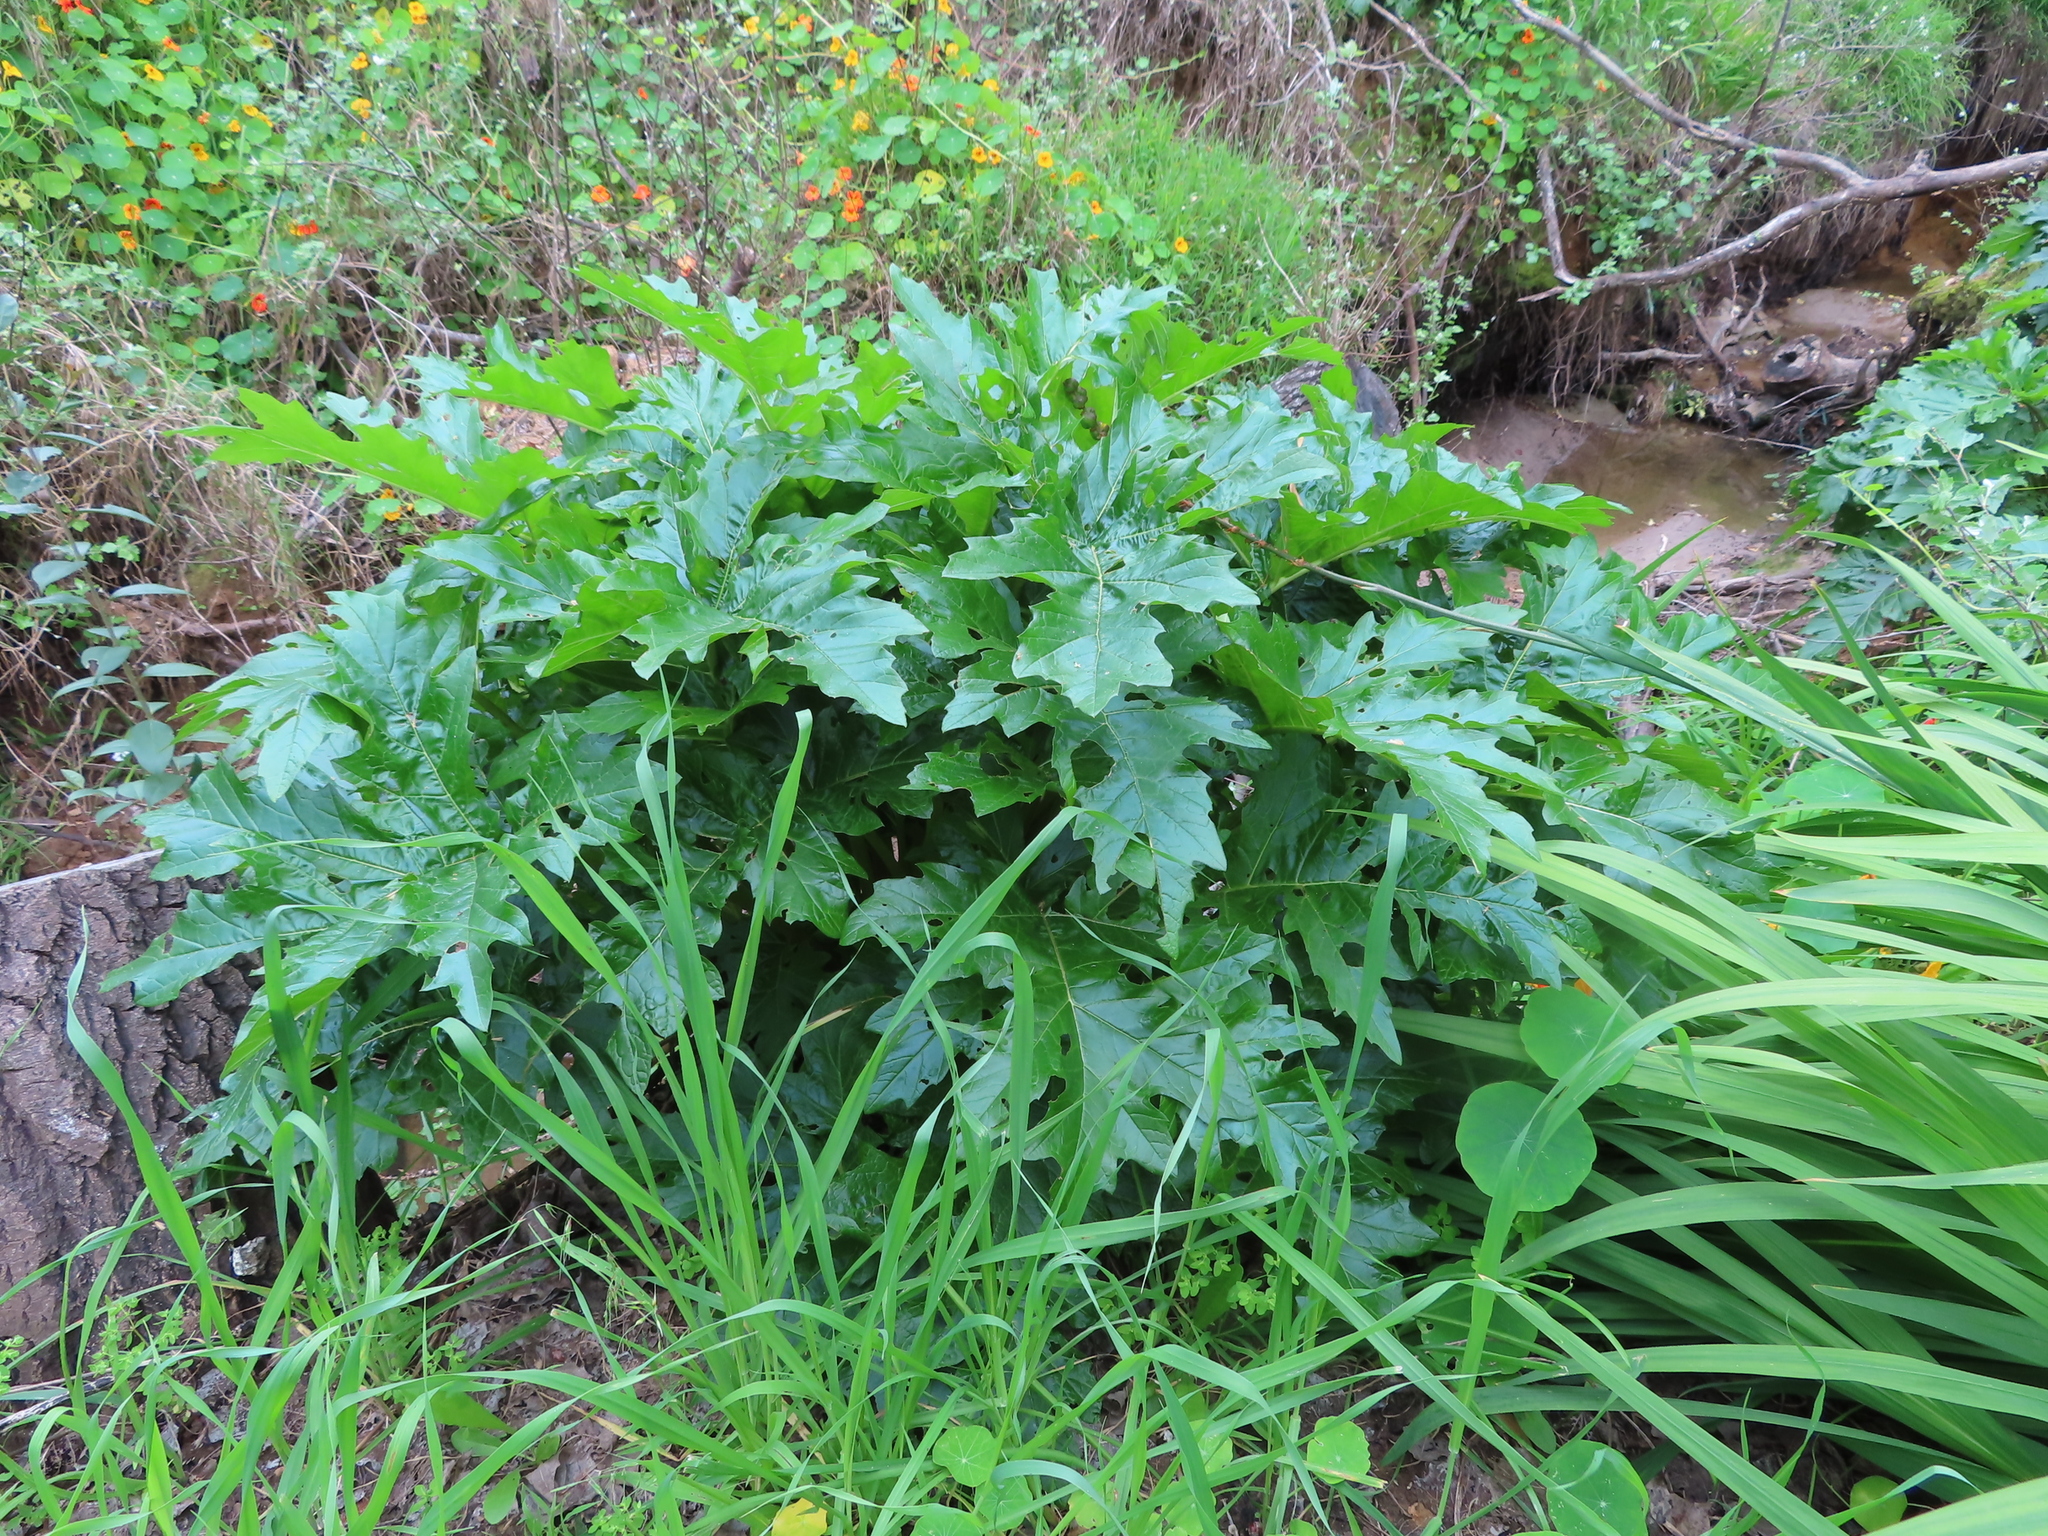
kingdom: Plantae
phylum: Tracheophyta
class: Magnoliopsida
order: Lamiales
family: Acanthaceae
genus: Acanthus
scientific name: Acanthus mollis
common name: Bear's-breech
